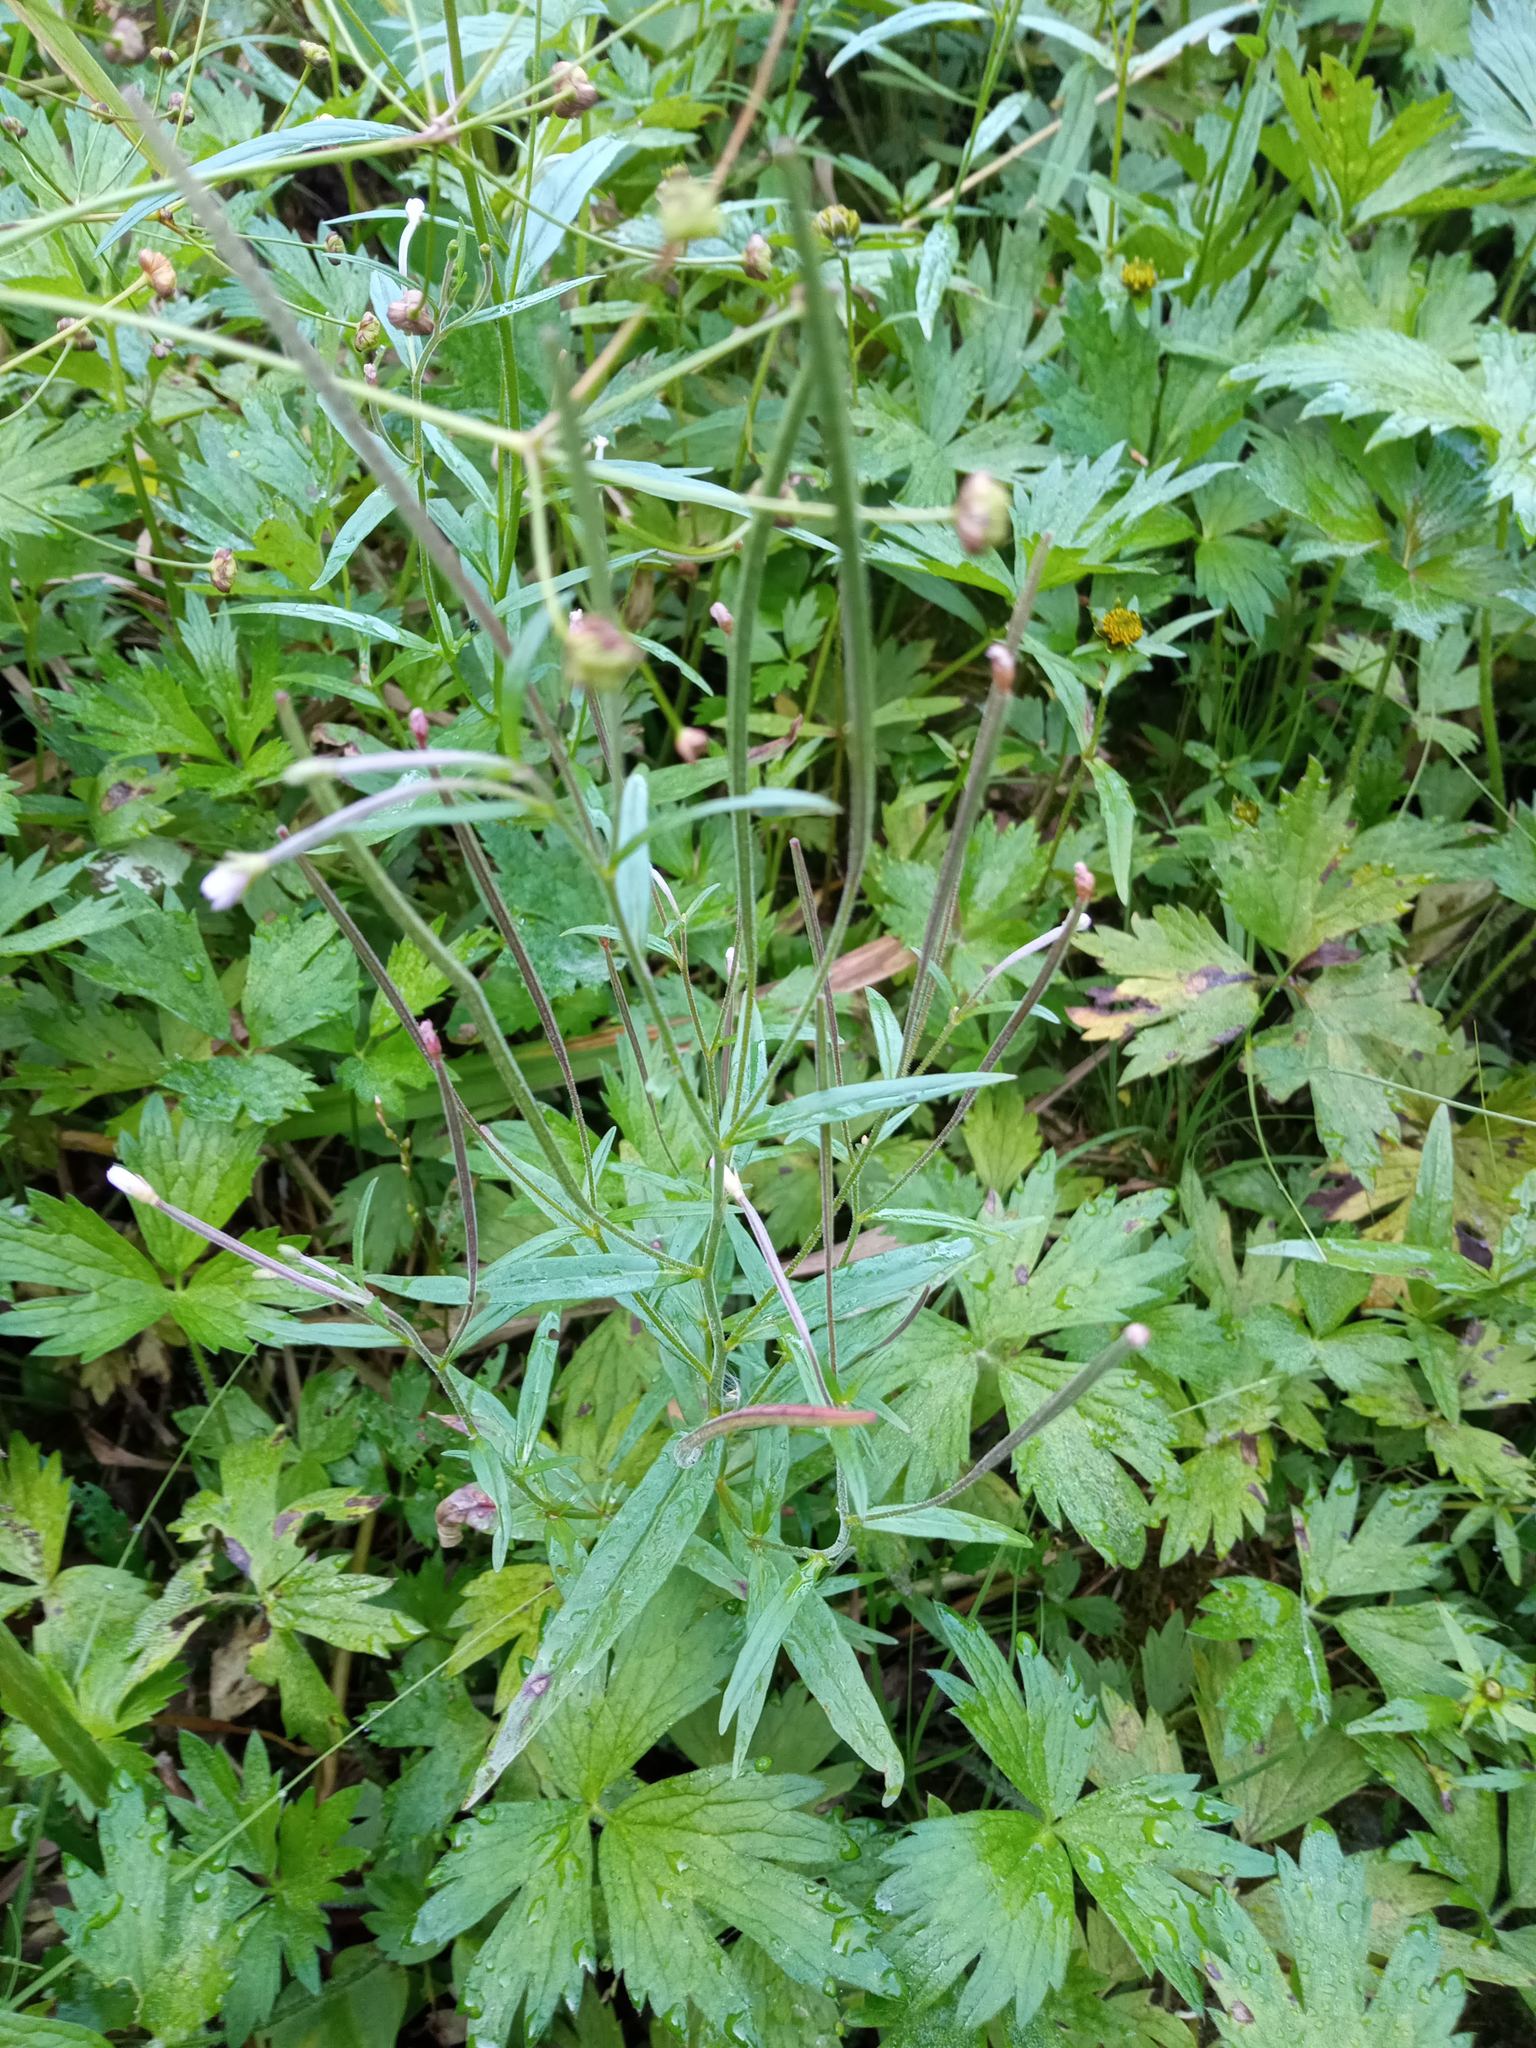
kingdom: Plantae
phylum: Tracheophyta
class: Magnoliopsida
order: Myrtales
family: Onagraceae
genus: Epilobium
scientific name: Epilobium palustre
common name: Marsh willowherb
